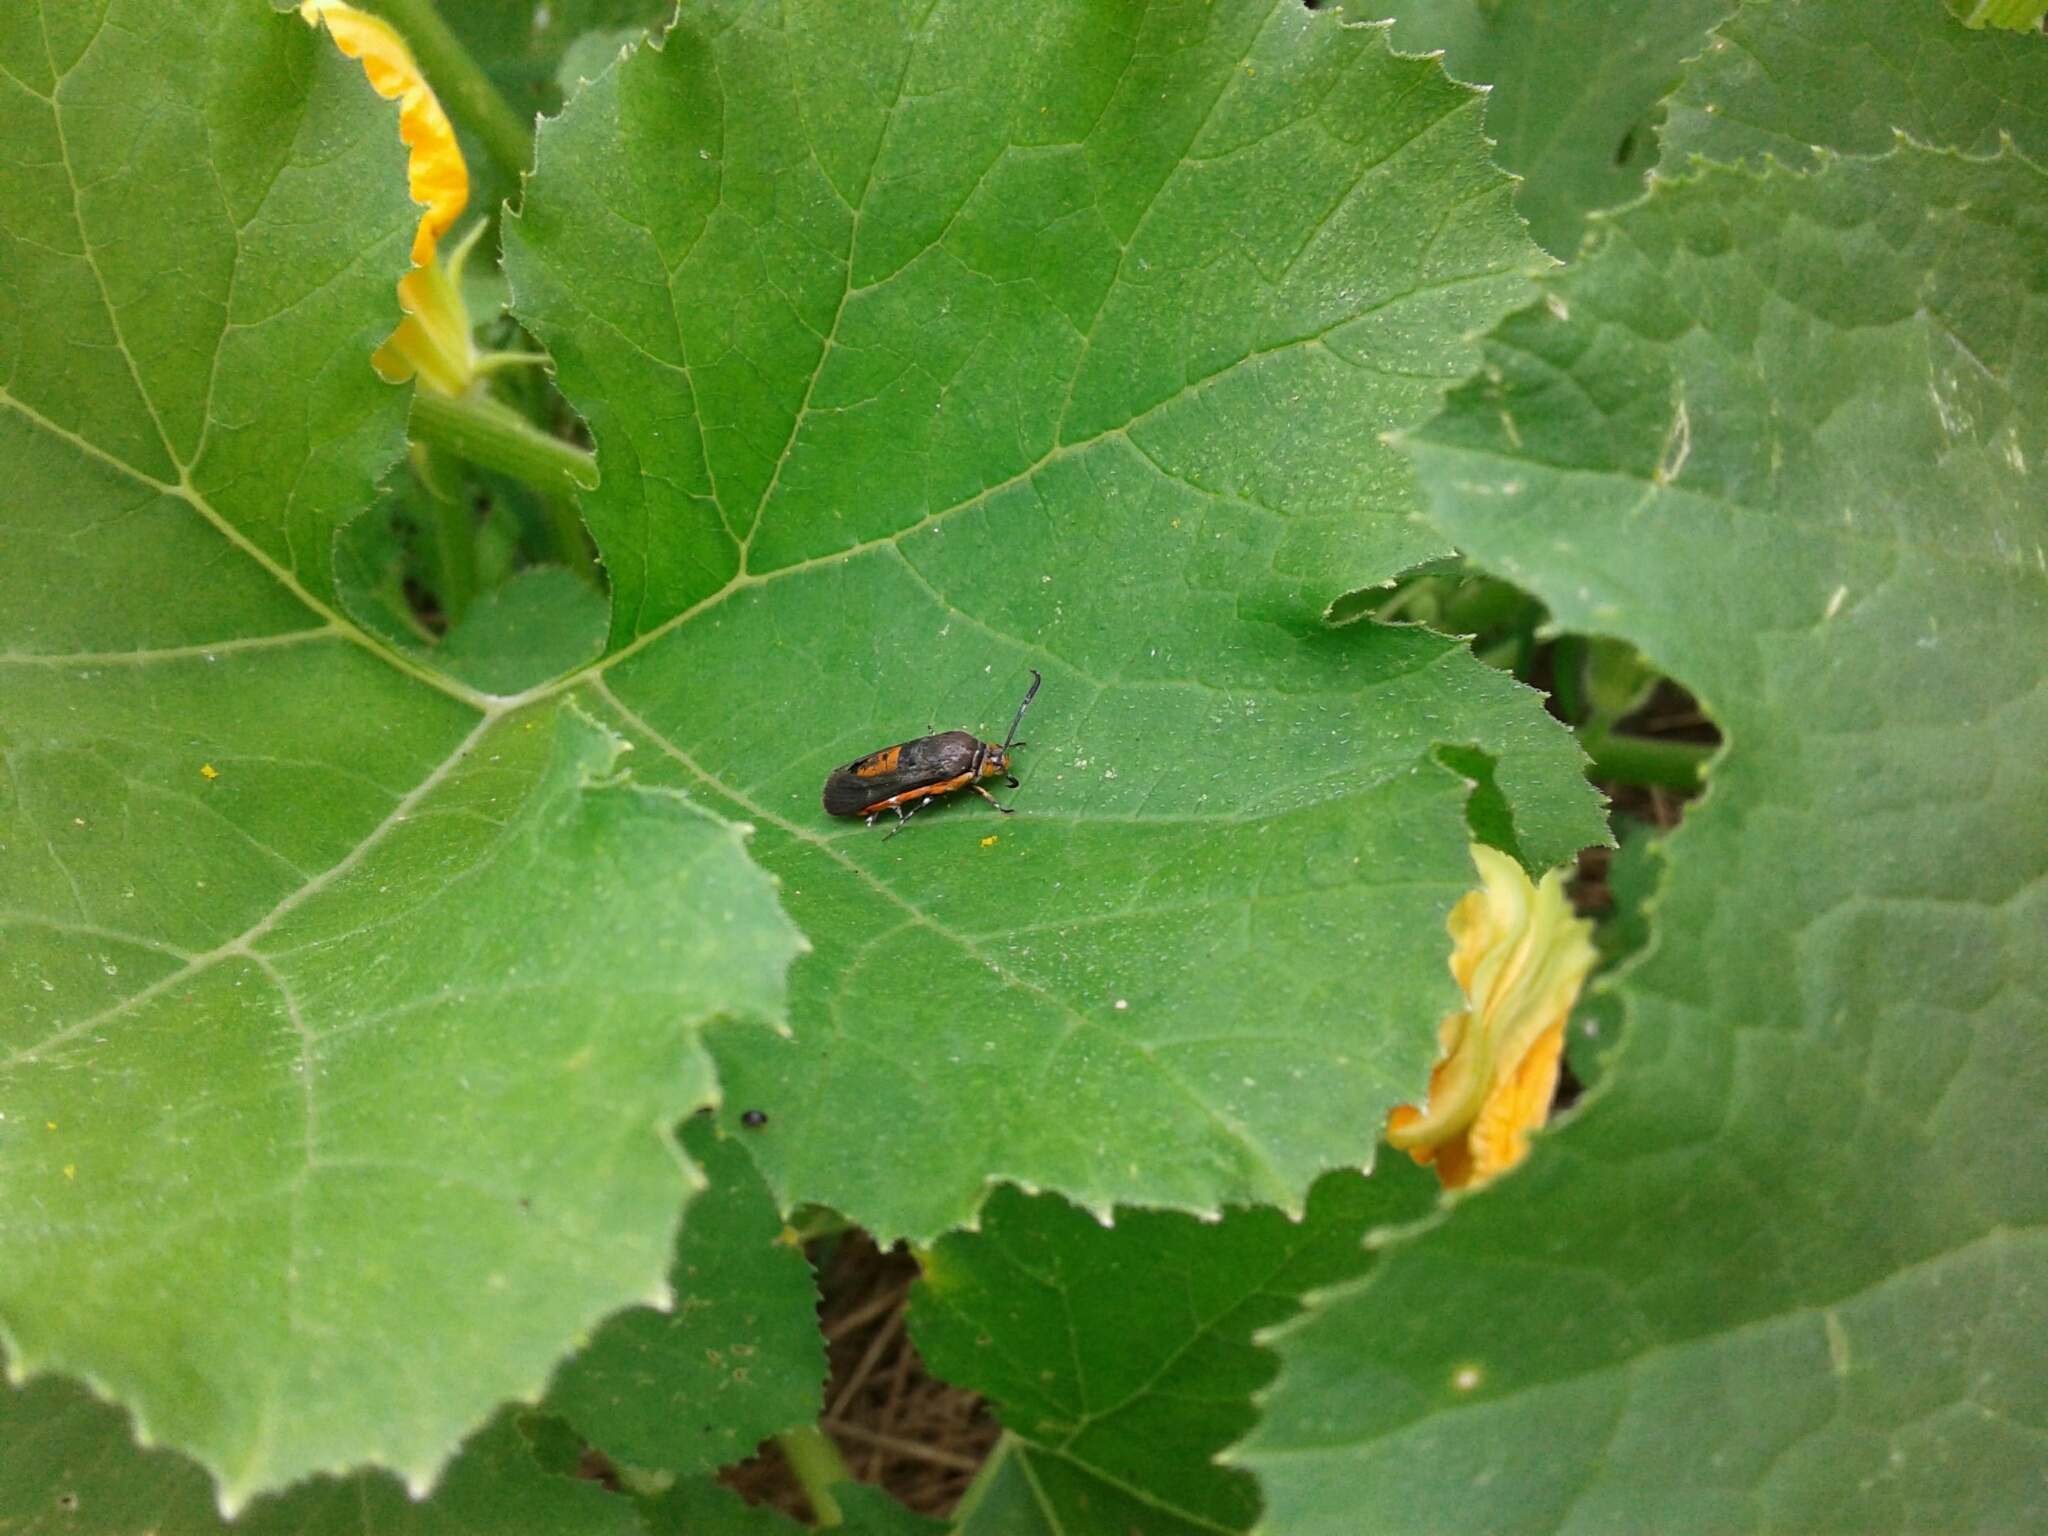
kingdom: Animalia
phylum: Arthropoda
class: Insecta
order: Lepidoptera
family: Sesiidae
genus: Eichlinia
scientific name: Eichlinia cucurbitae
